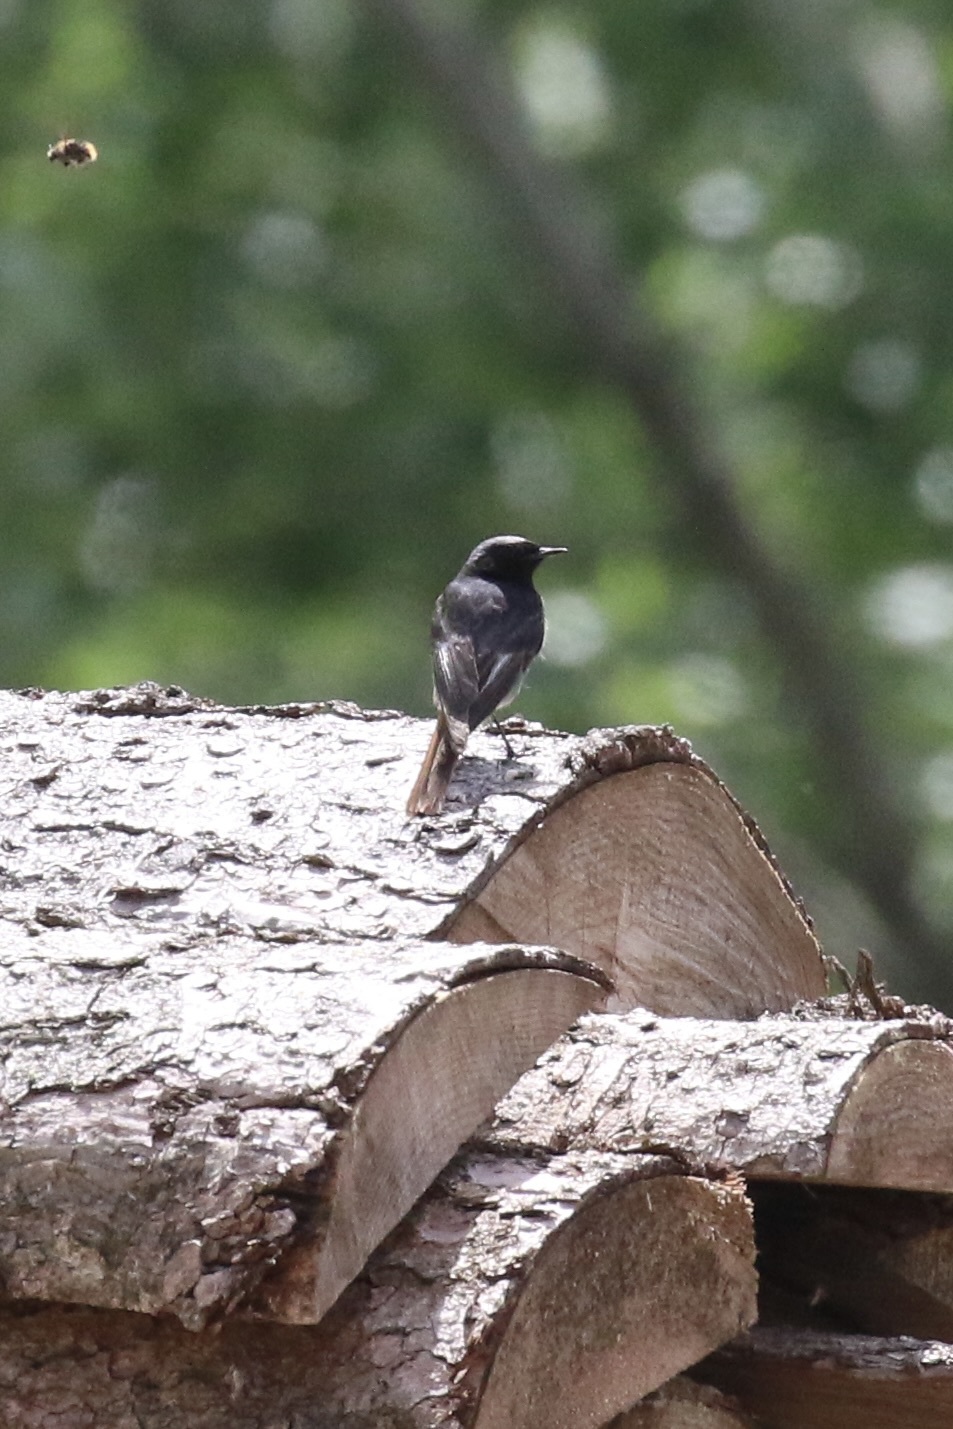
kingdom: Animalia
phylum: Chordata
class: Aves
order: Passeriformes
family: Muscicapidae
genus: Phoenicurus
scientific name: Phoenicurus ochruros
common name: Black redstart
